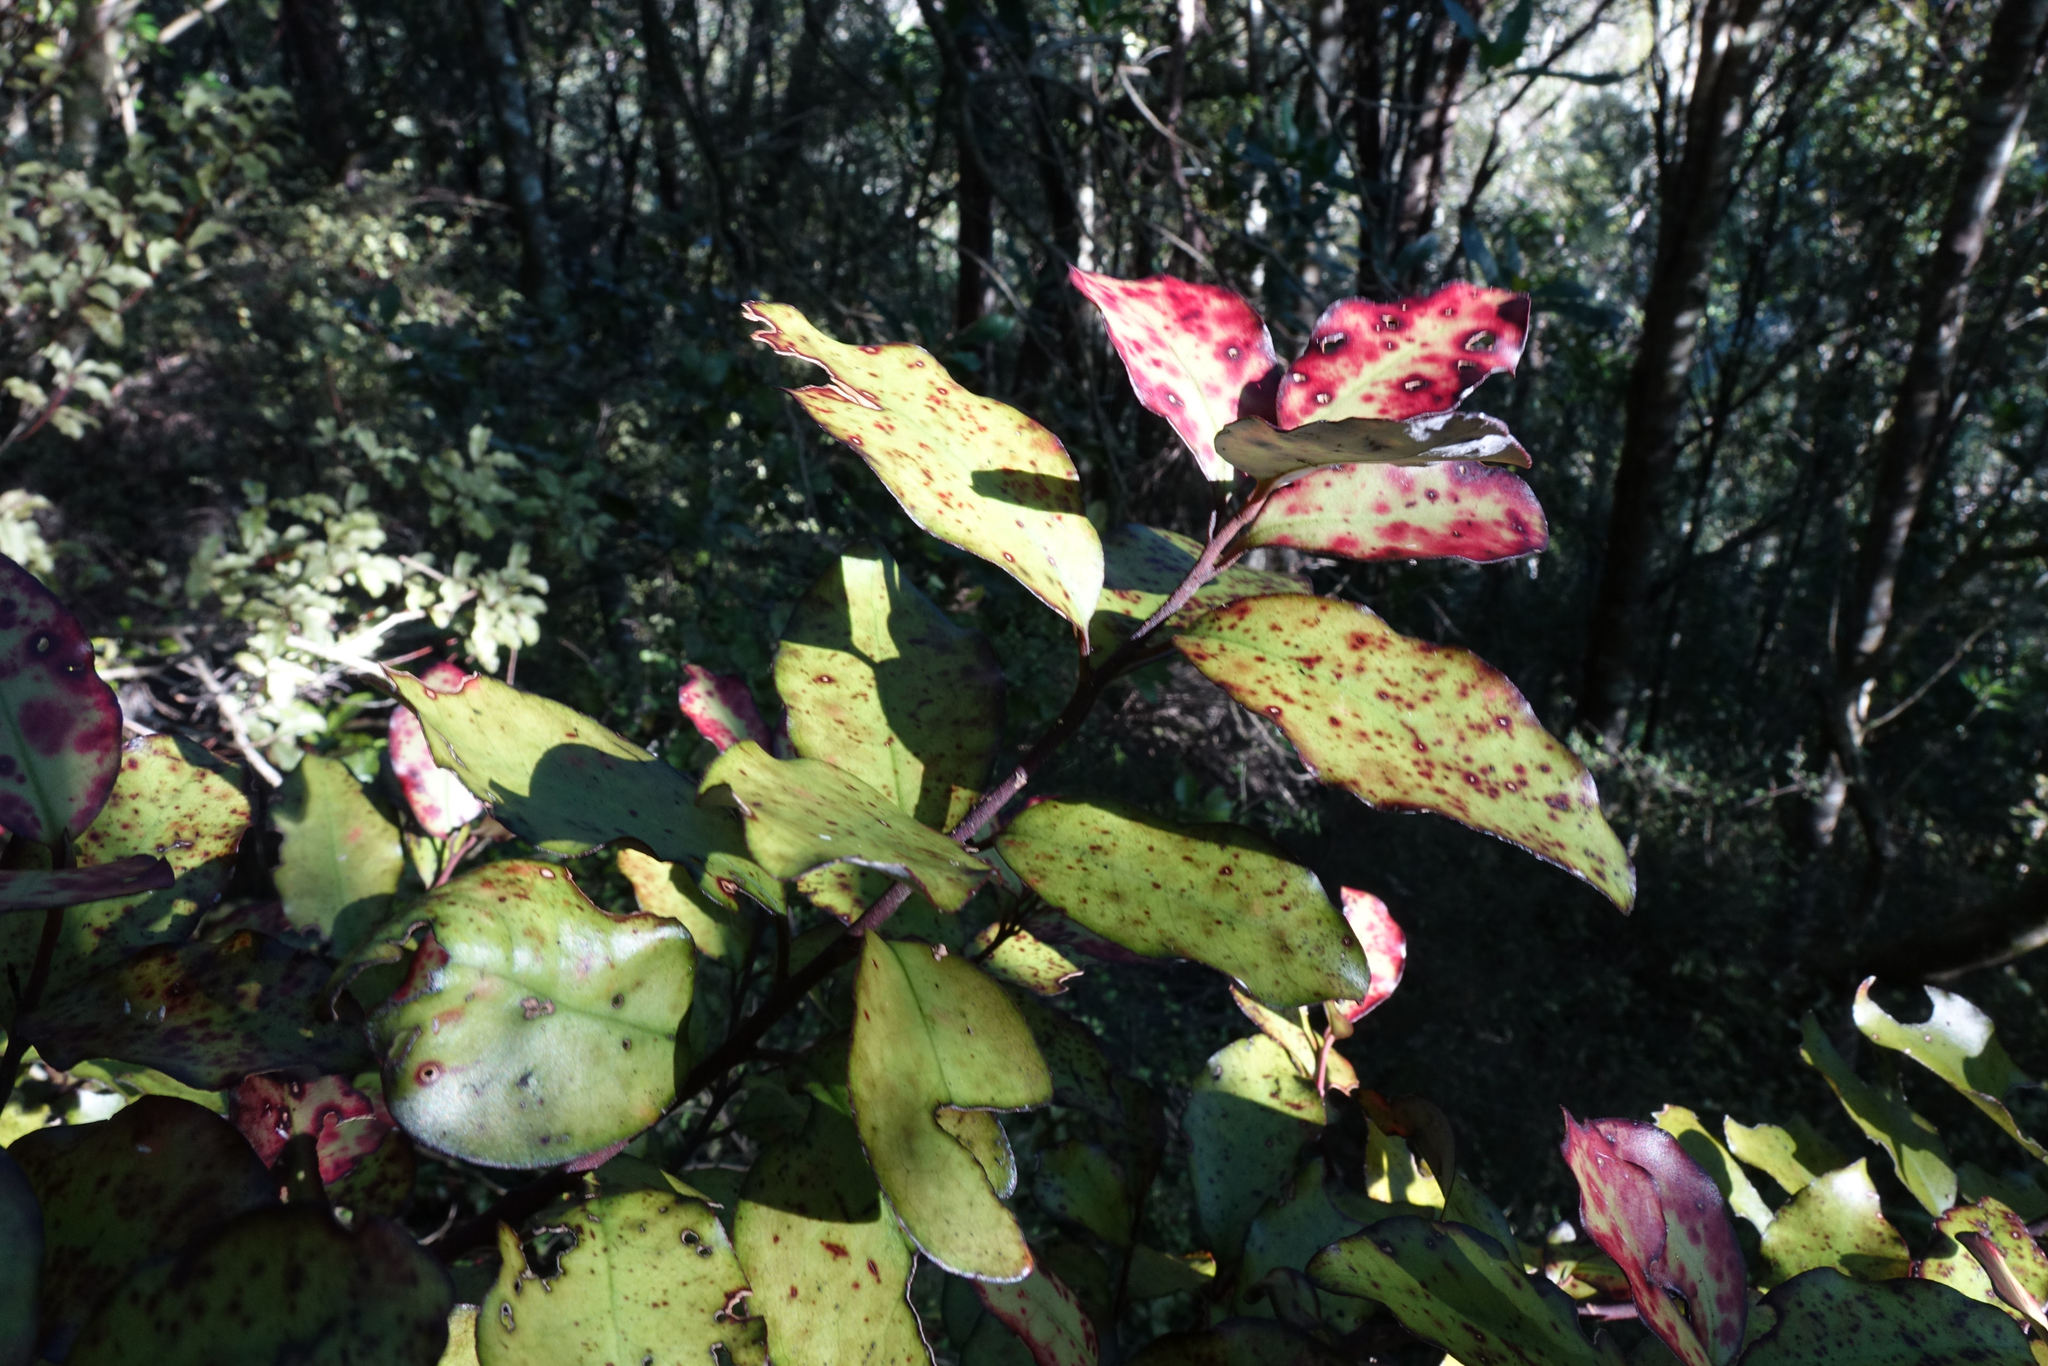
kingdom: Plantae
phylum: Tracheophyta
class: Magnoliopsida
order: Canellales
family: Winteraceae
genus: Pseudowintera
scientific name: Pseudowintera colorata
